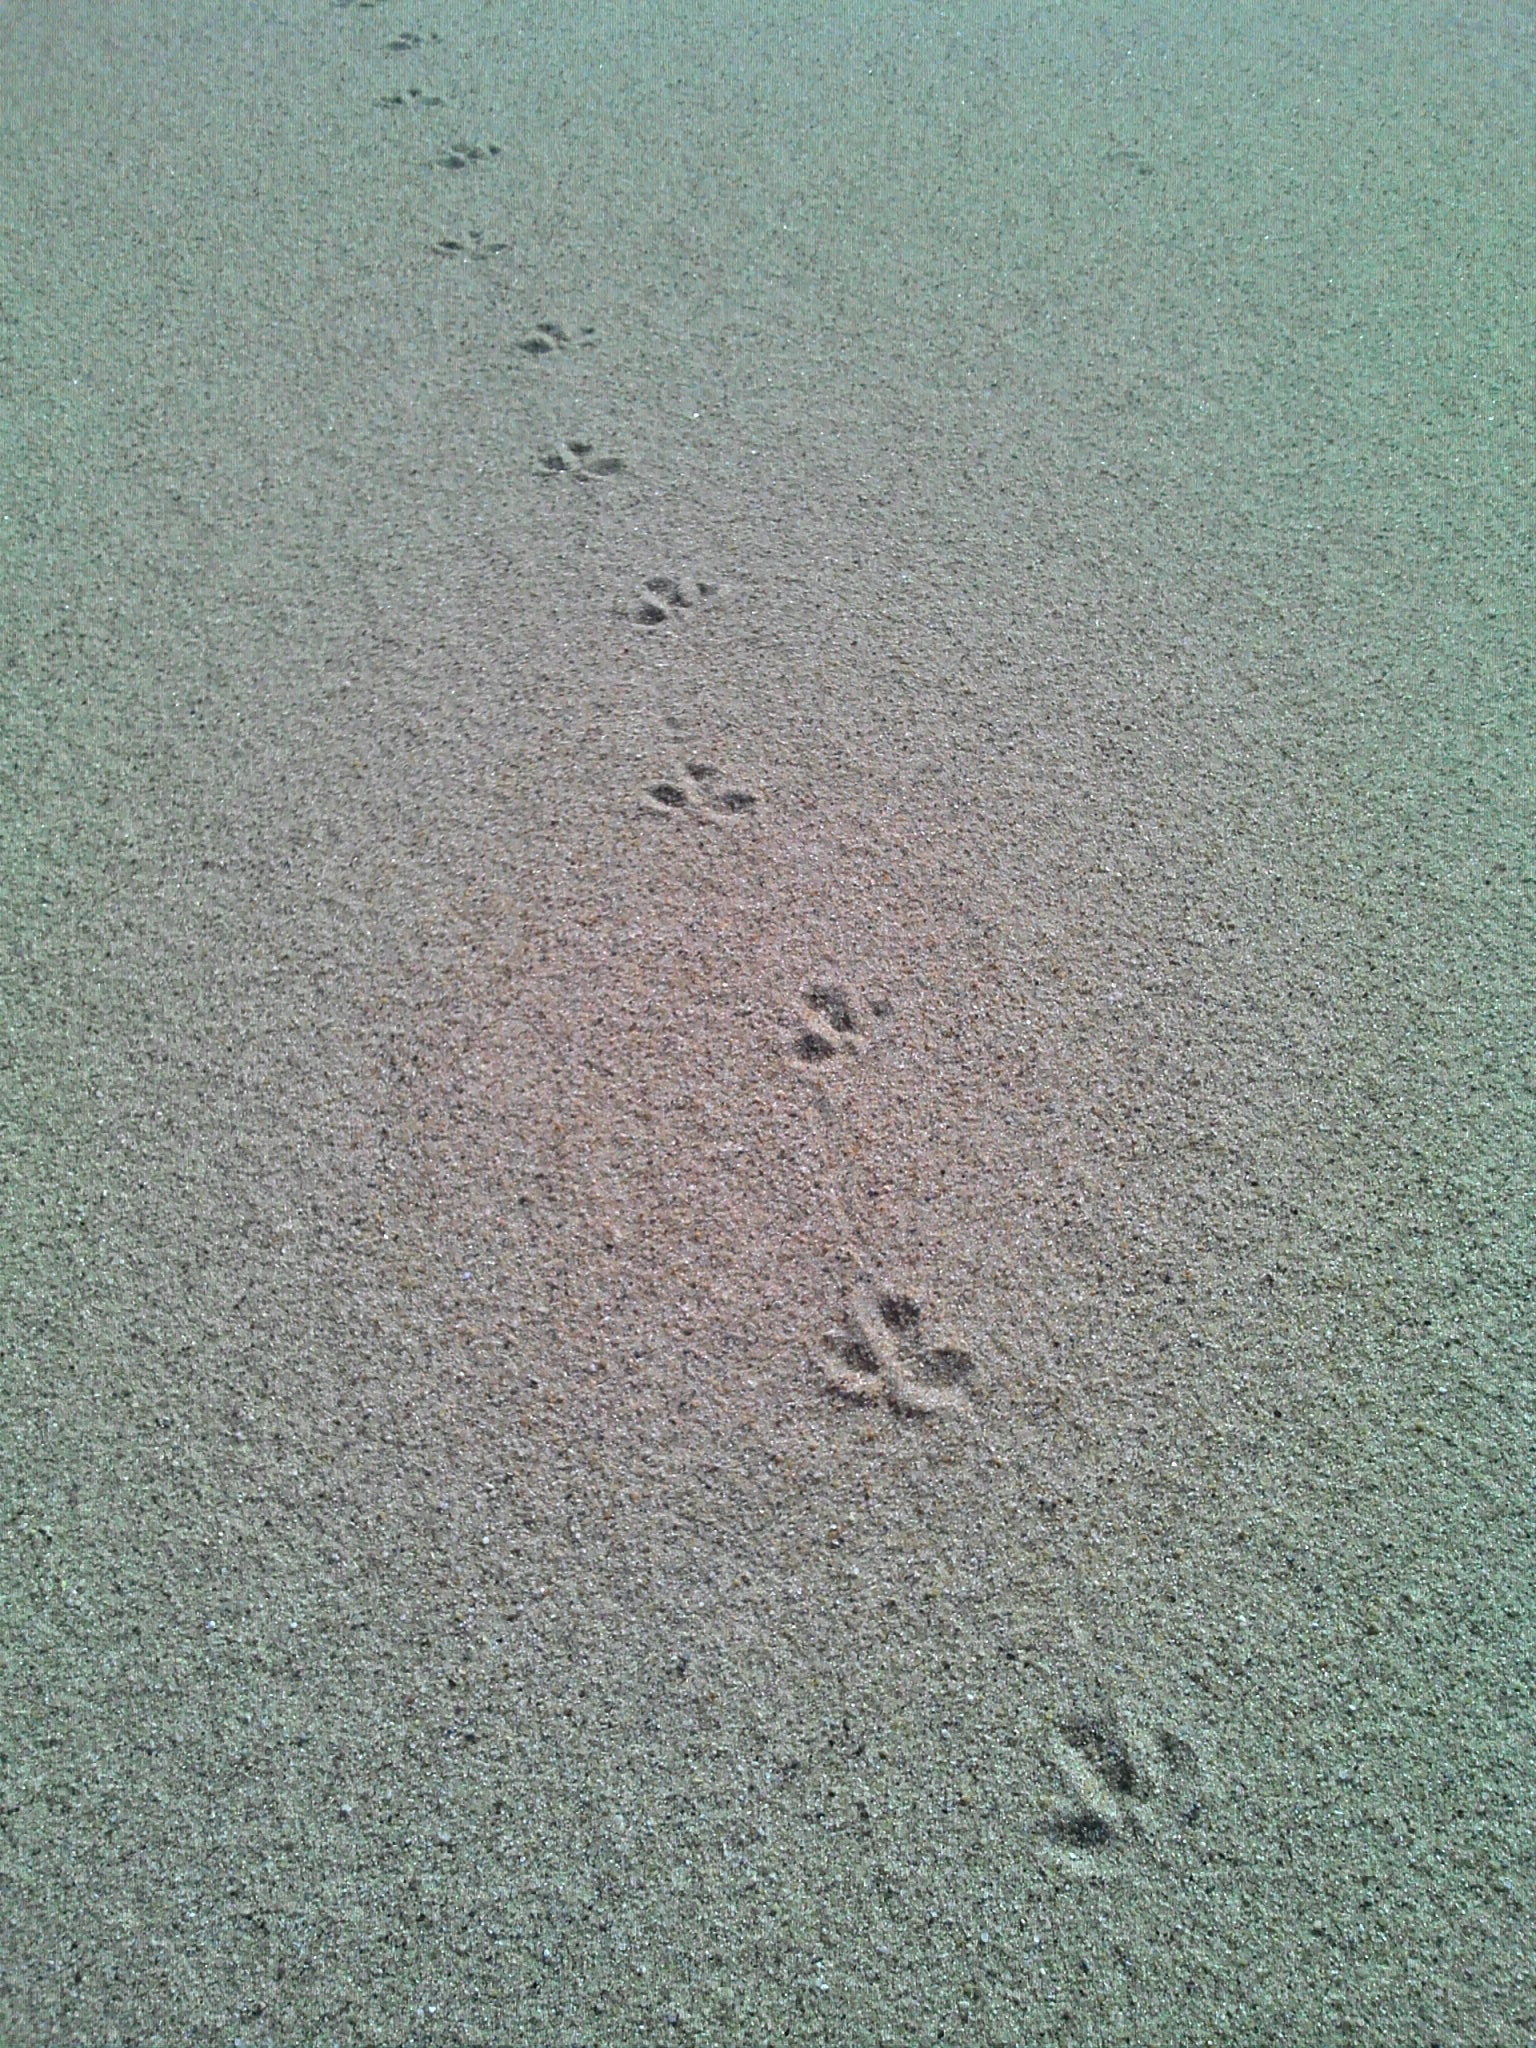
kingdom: Animalia
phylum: Chordata
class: Aves
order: Charadriiformes
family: Haematopodidae
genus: Haematopus
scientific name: Haematopus palliatus
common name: American oystercatcher
